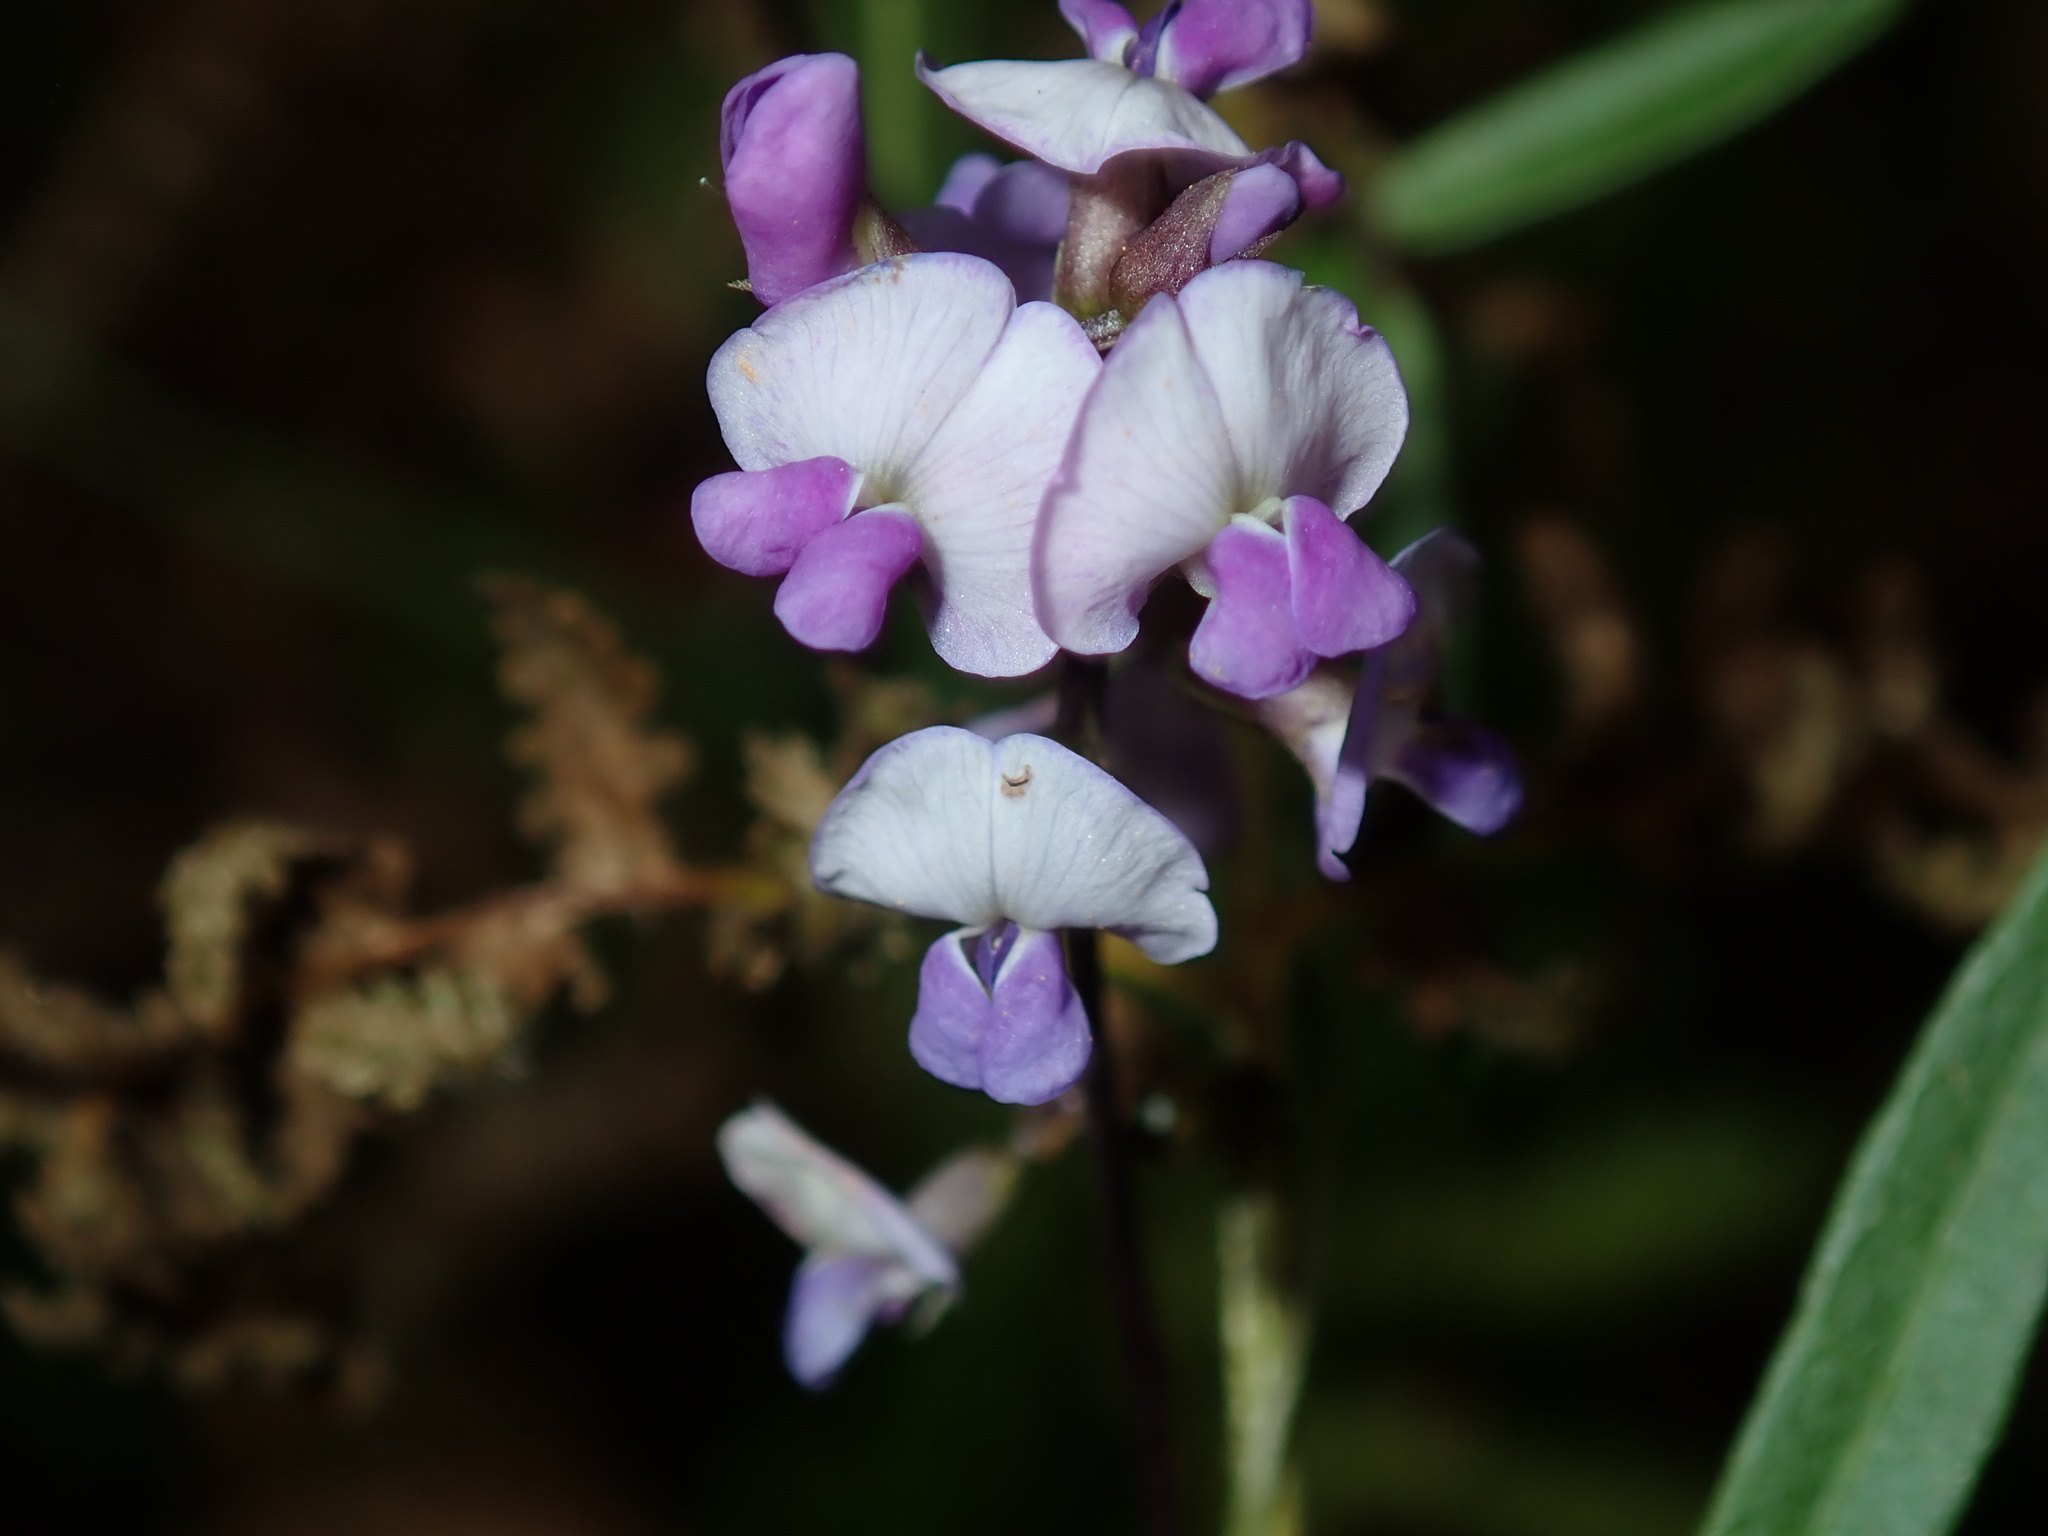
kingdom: Plantae
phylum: Tracheophyta
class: Magnoliopsida
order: Fabales
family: Fabaceae
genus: Glycine
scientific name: Glycine clandestina
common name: Twining glycine
